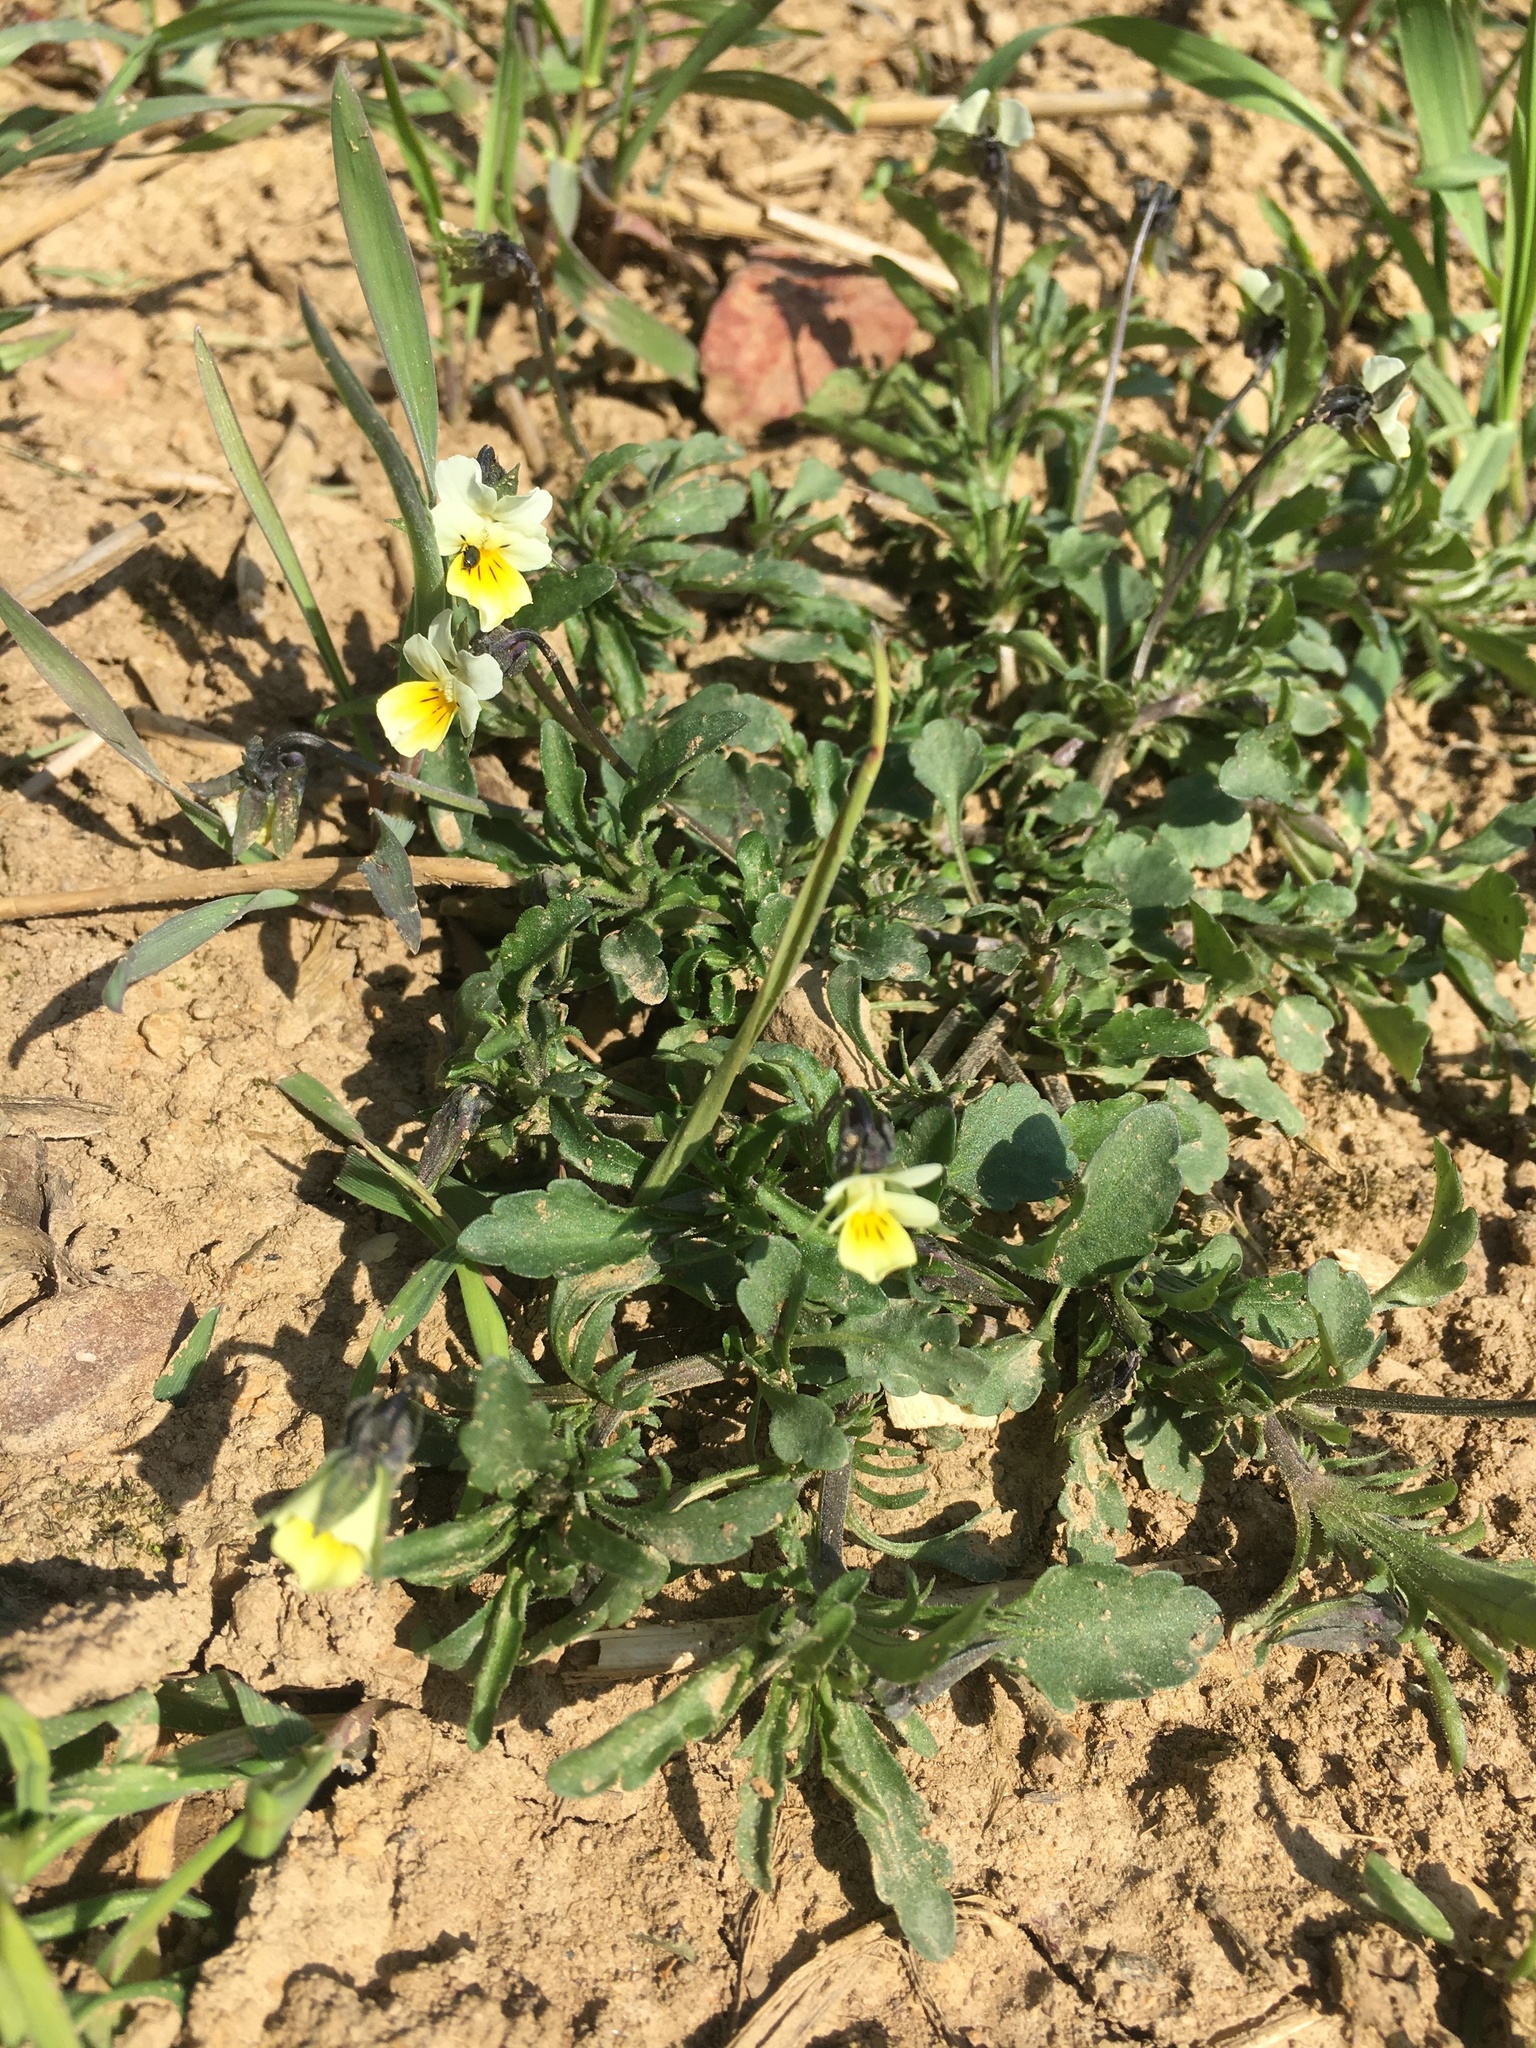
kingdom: Plantae
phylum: Tracheophyta
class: Magnoliopsida
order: Malpighiales
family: Violaceae
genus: Viola
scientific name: Viola arvensis
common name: Field pansy
